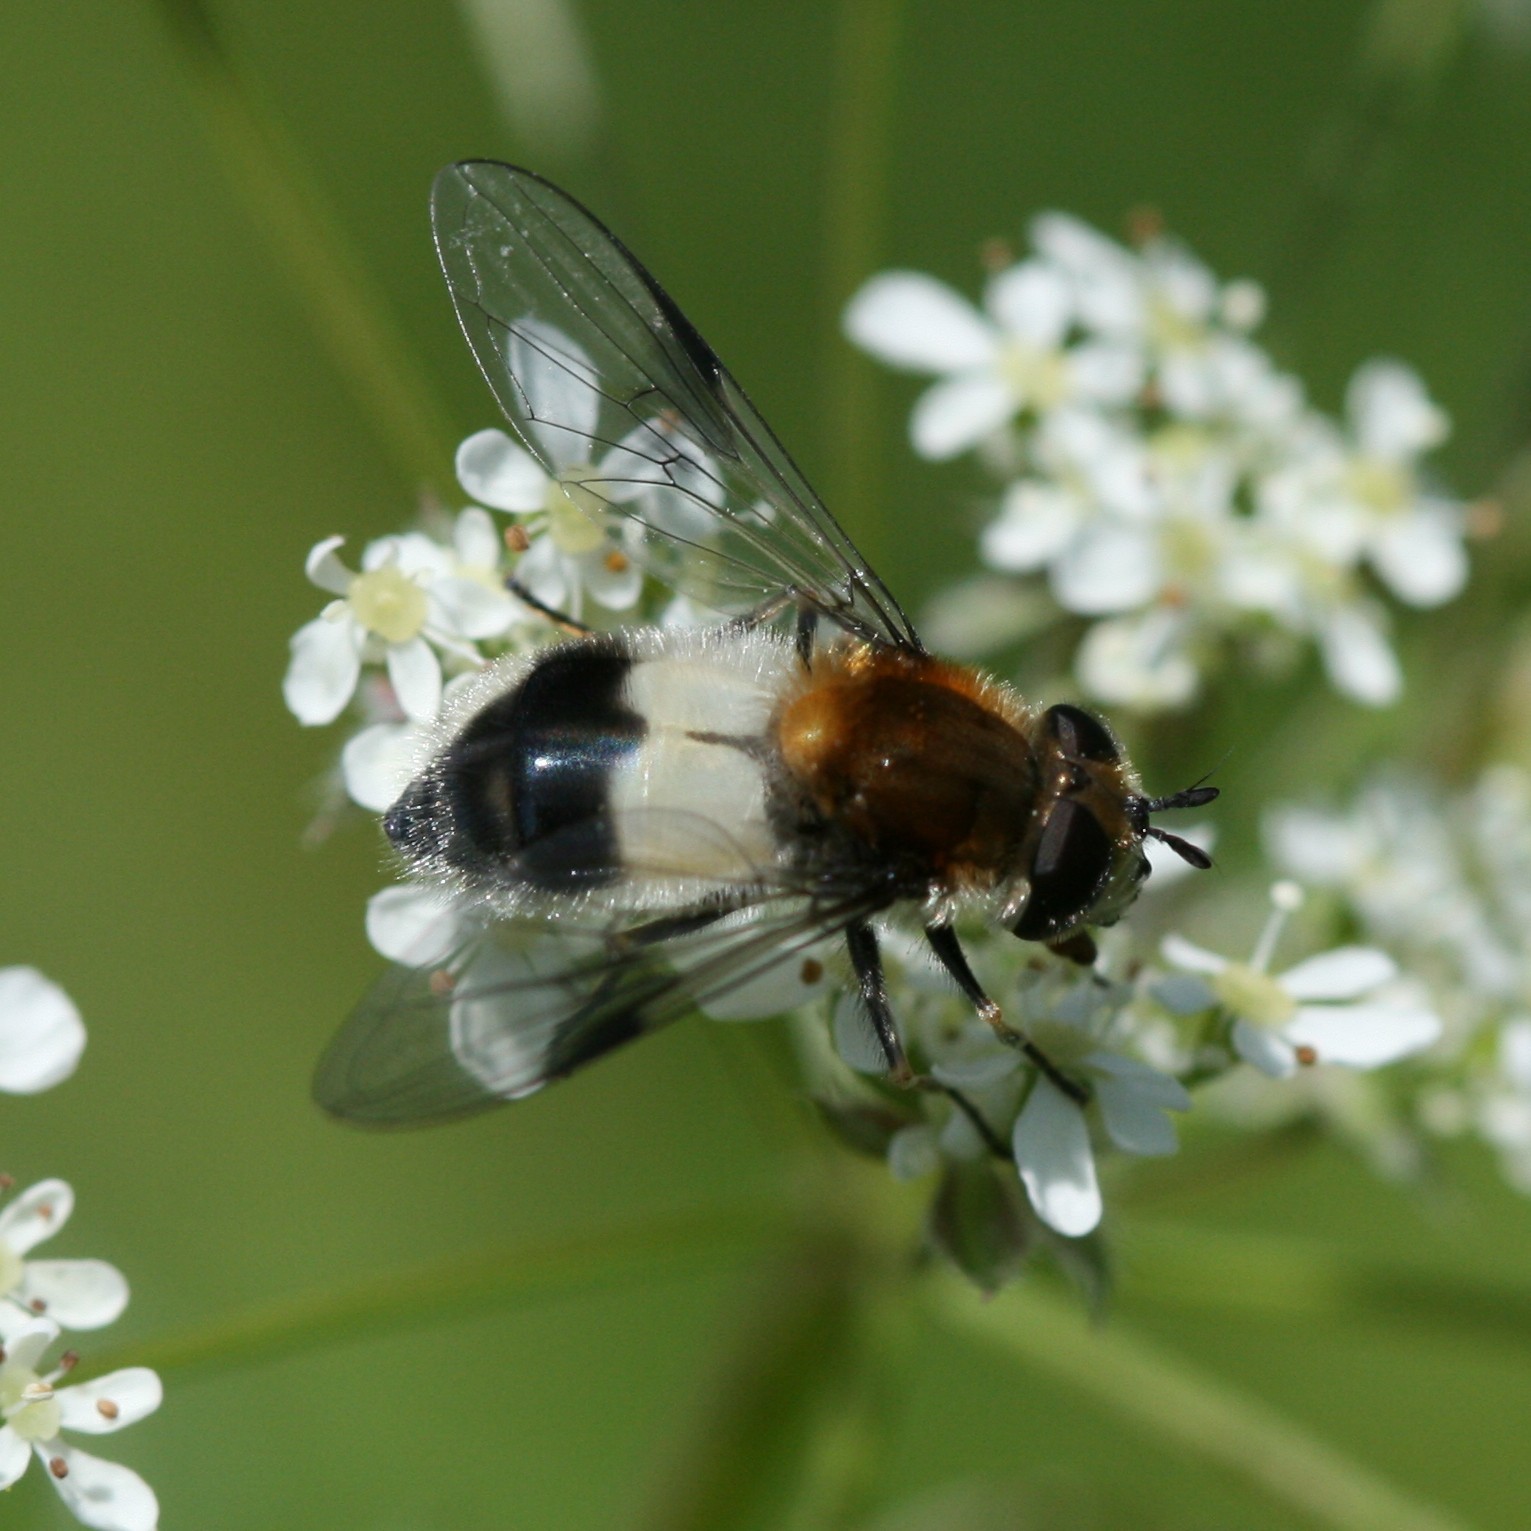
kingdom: Animalia
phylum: Arthropoda
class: Insecta
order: Diptera
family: Syrphidae
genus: Leucozona
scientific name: Leucozona lucorum
